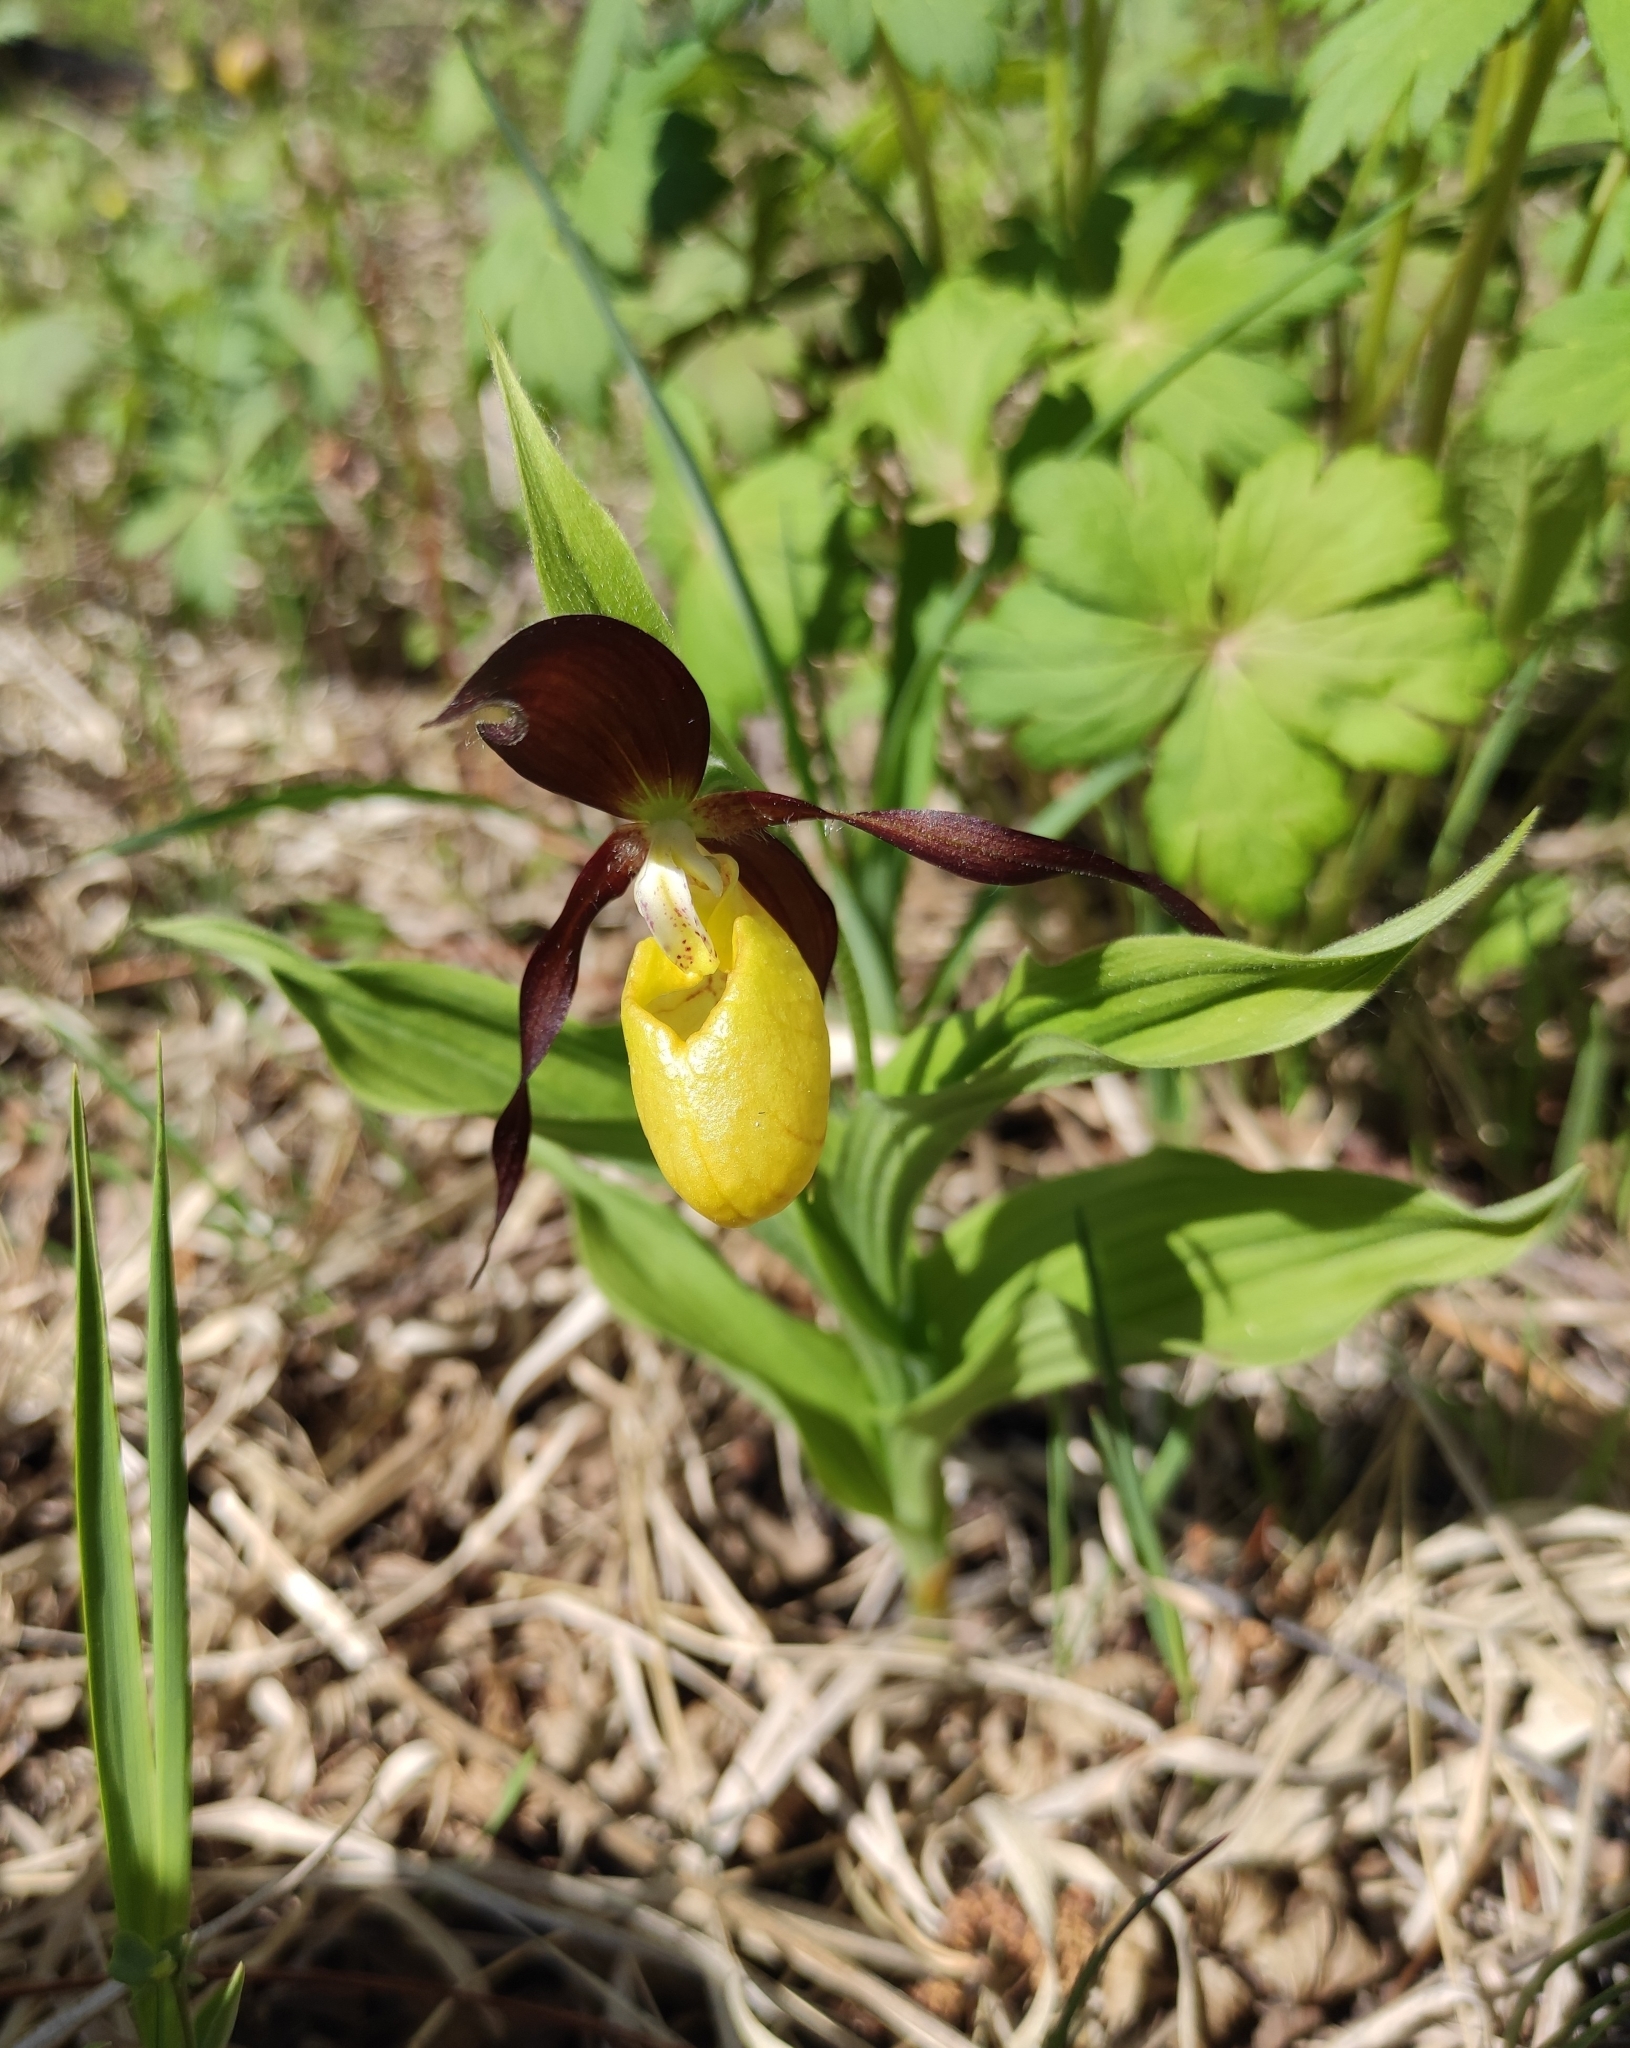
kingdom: Plantae
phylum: Tracheophyta
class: Liliopsida
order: Asparagales
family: Orchidaceae
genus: Cypripedium
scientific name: Cypripedium calceolus
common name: Lady's-slipper
